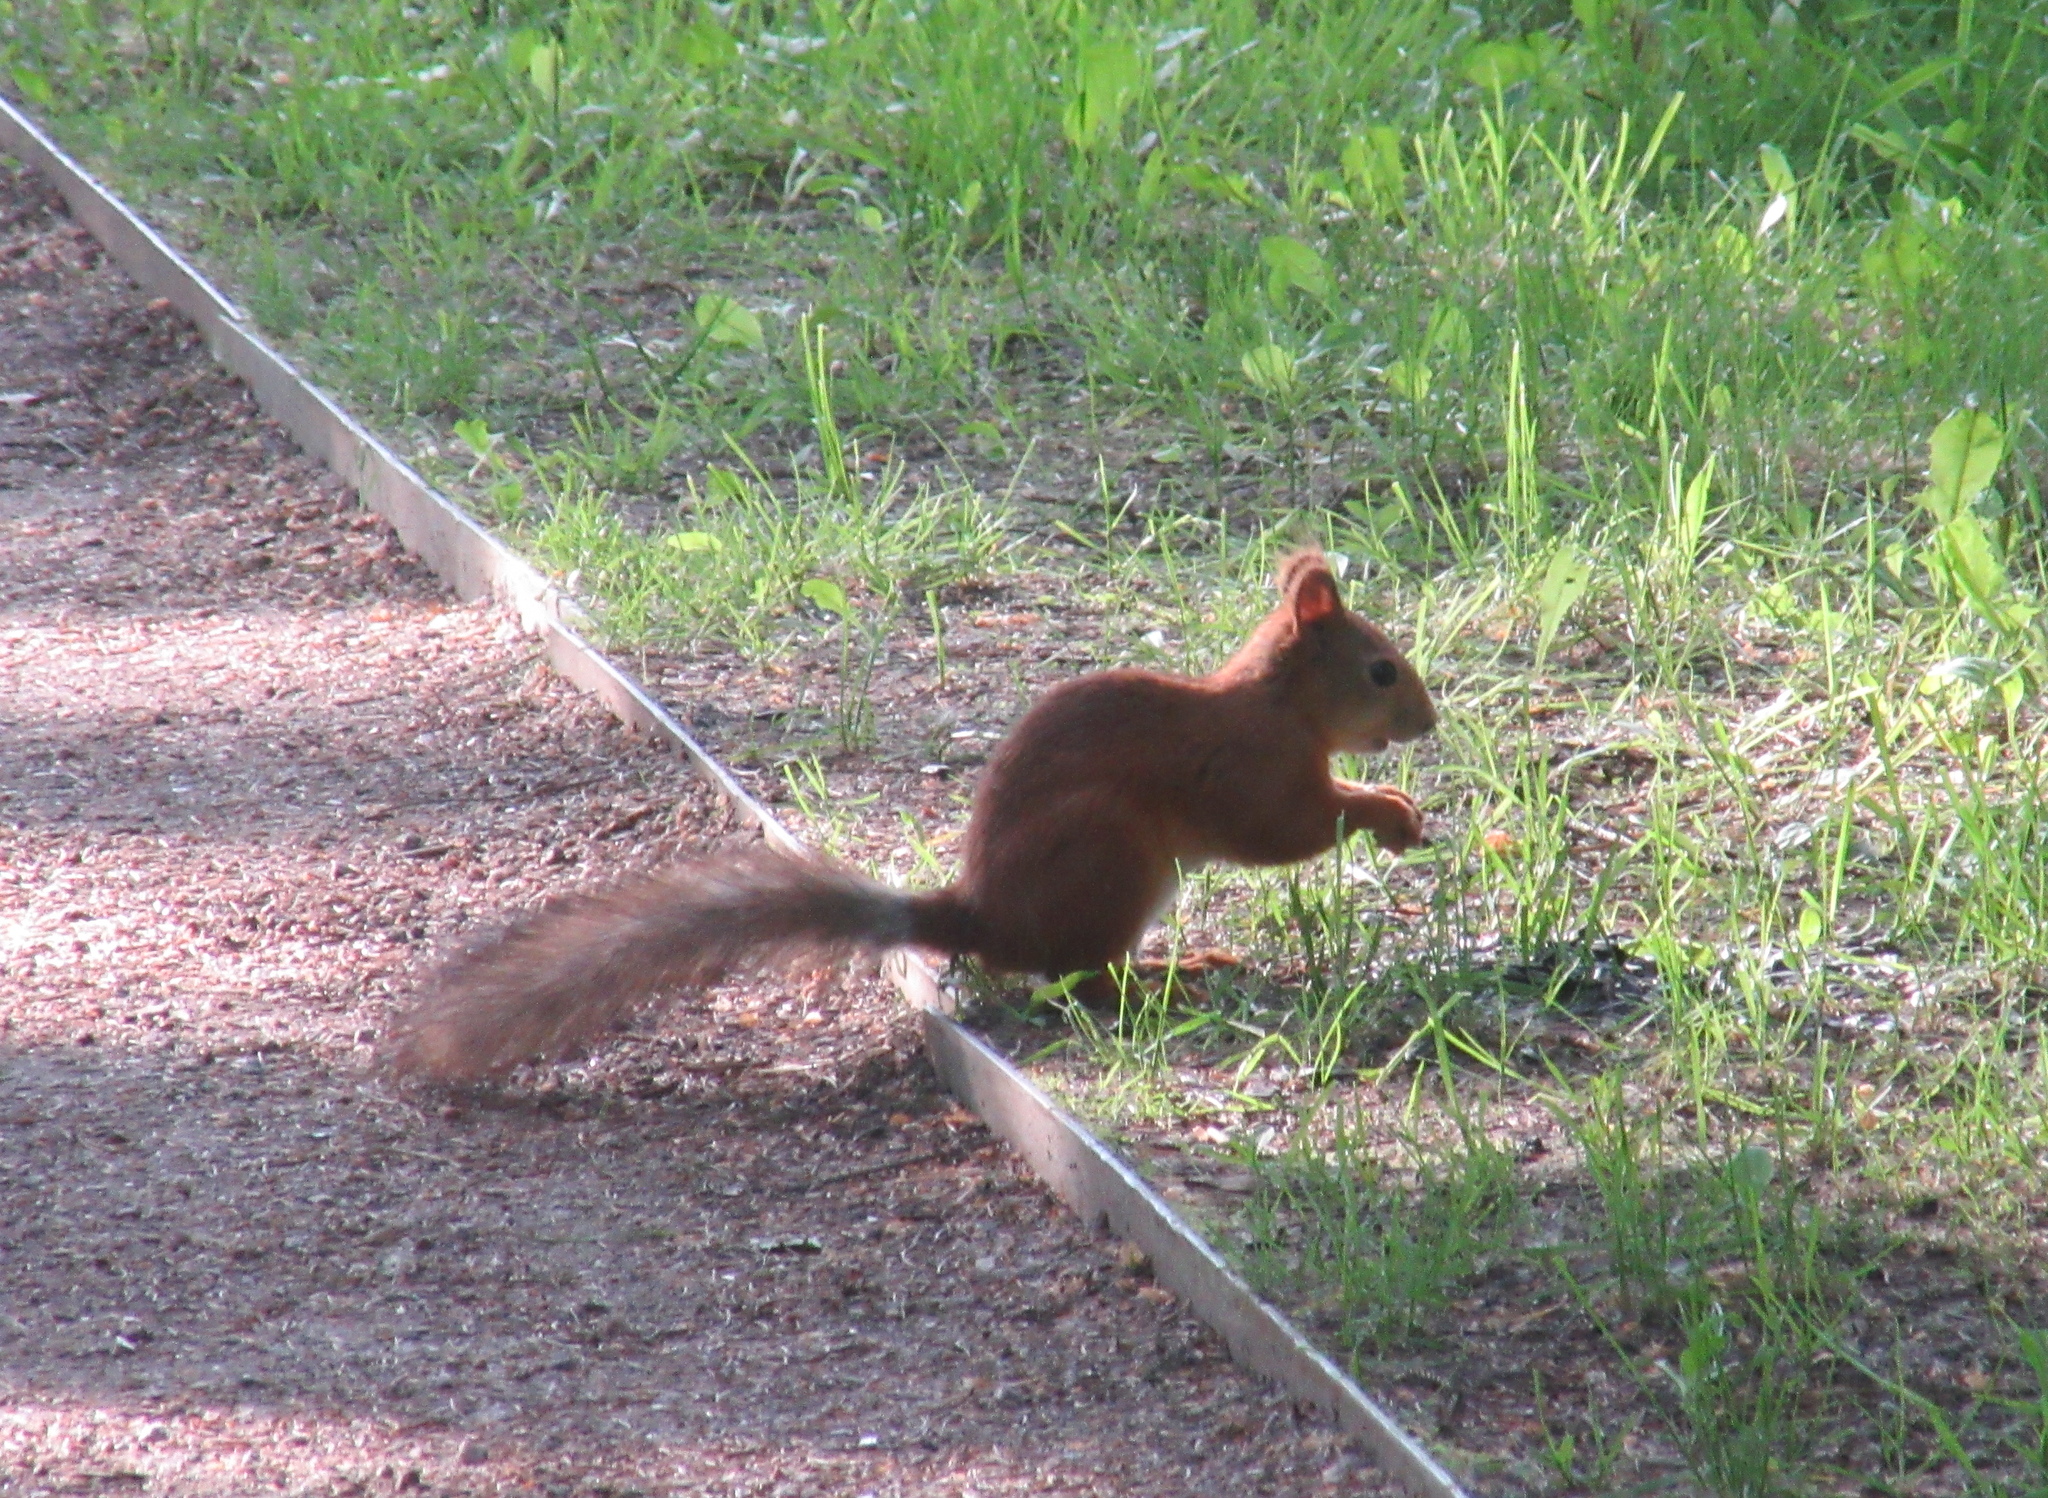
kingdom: Animalia
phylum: Chordata
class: Mammalia
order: Rodentia
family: Sciuridae
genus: Sciurus
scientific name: Sciurus vulgaris
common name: Eurasian red squirrel
